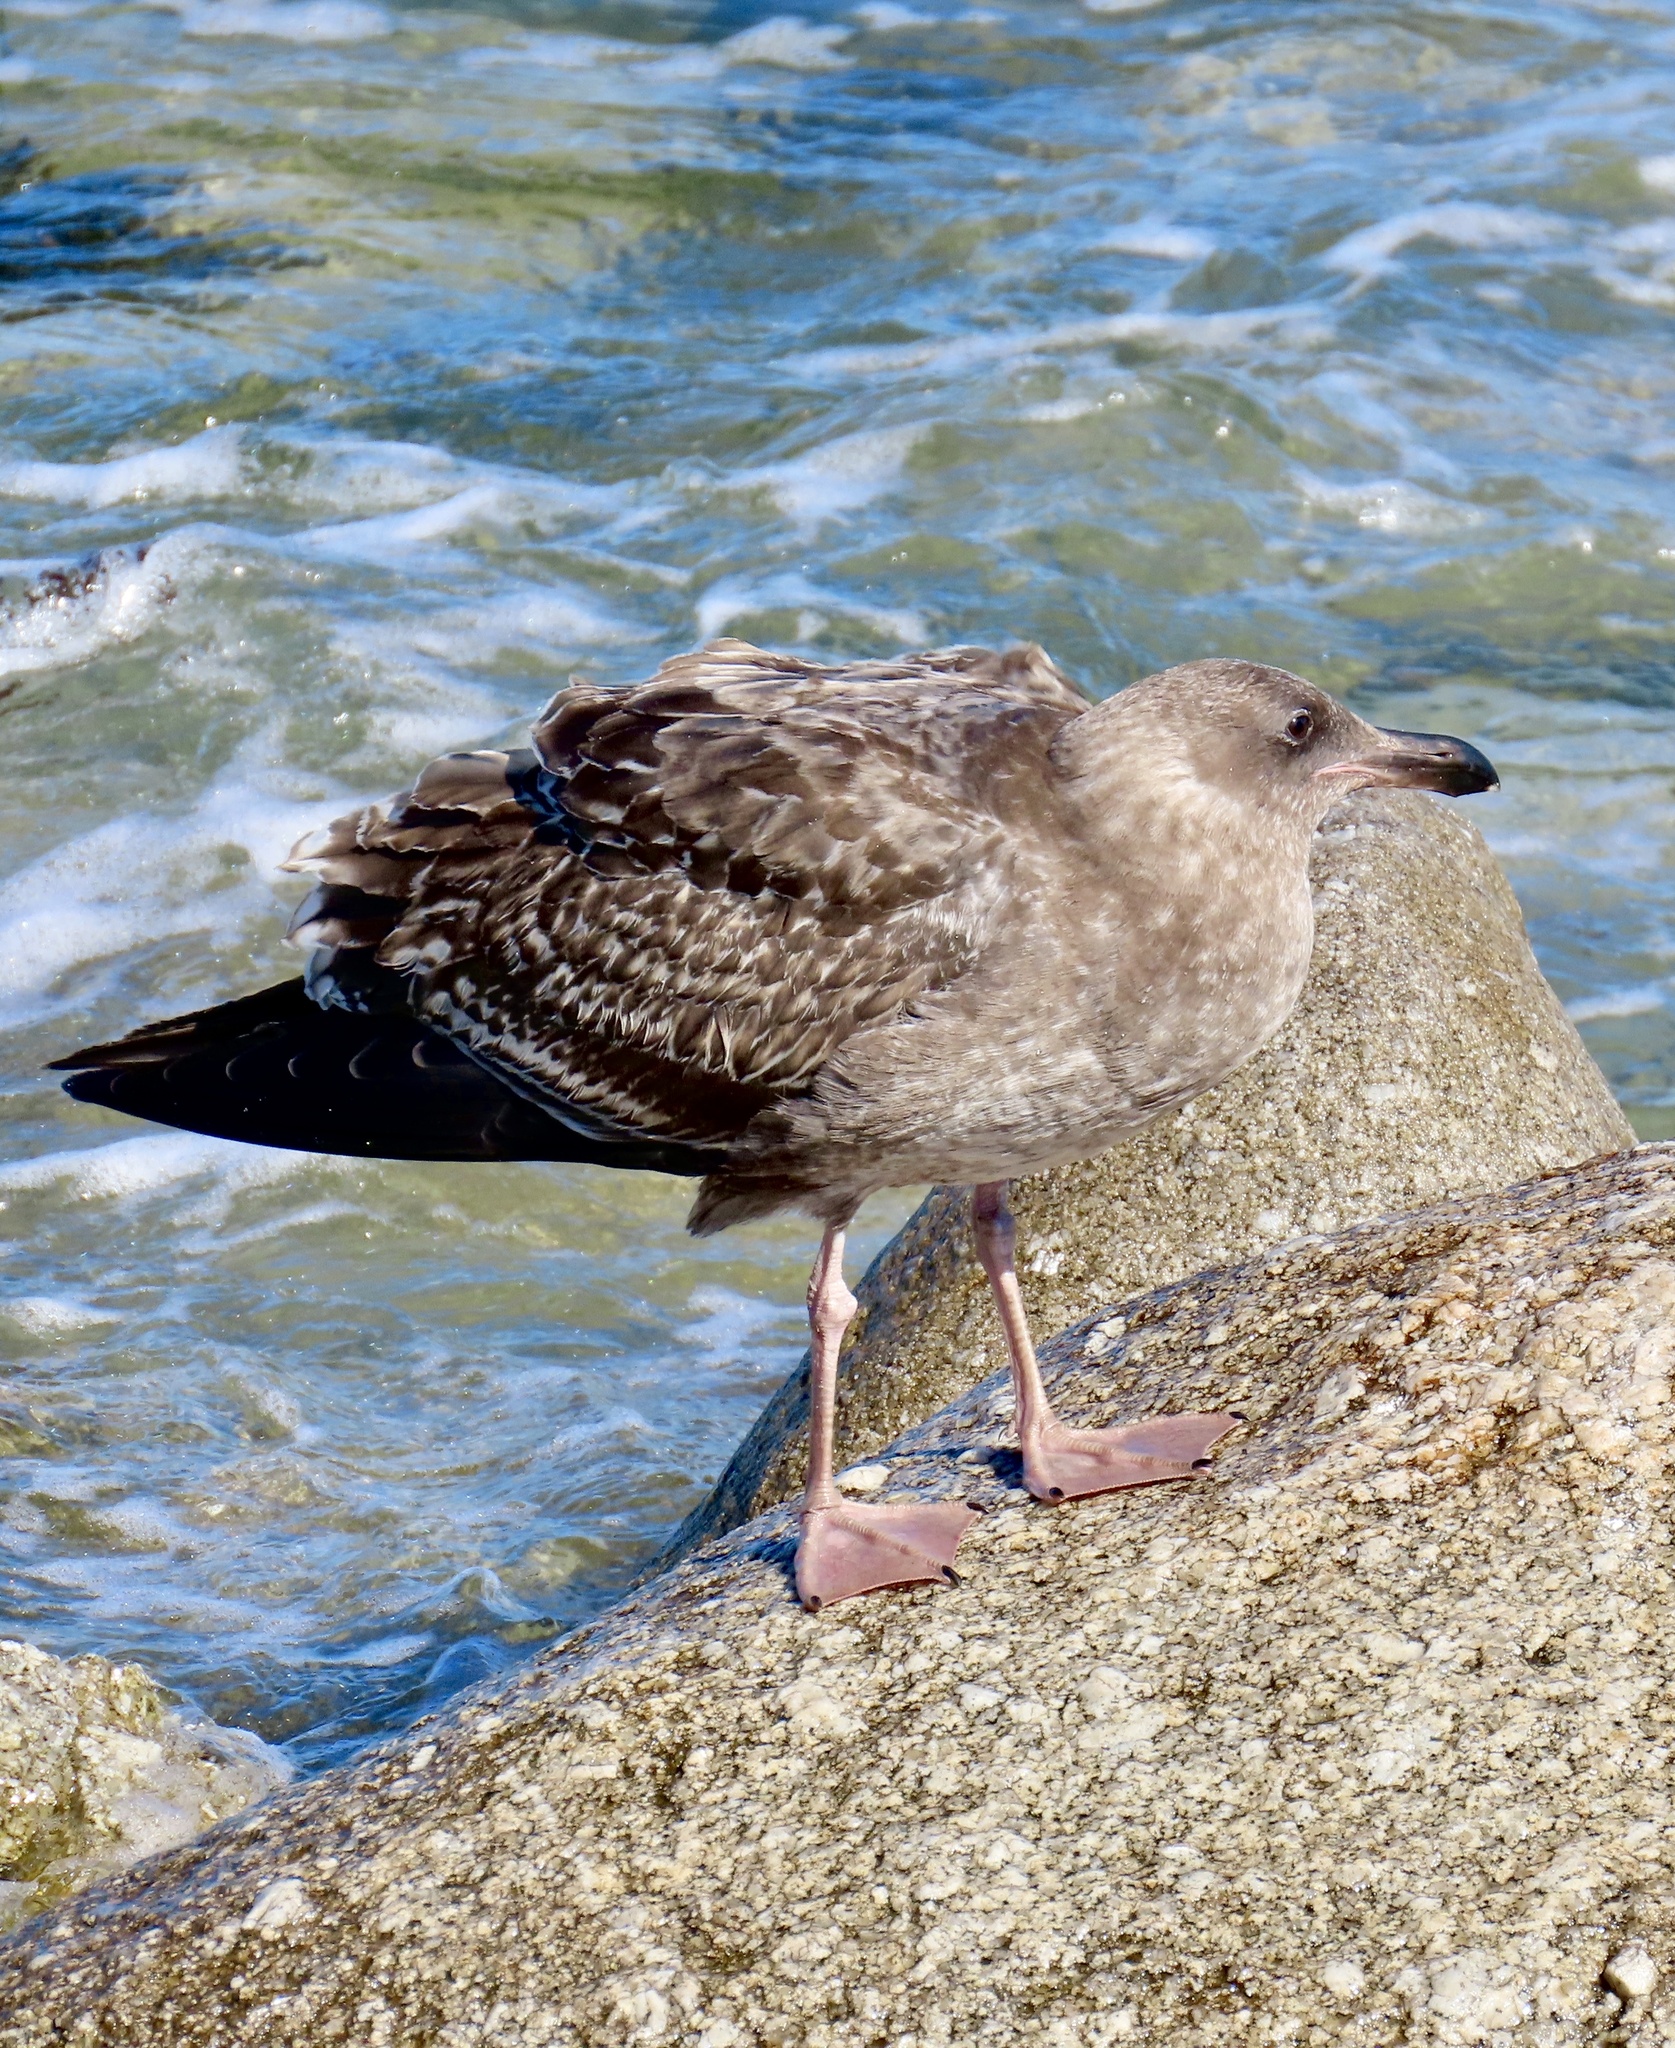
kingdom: Animalia
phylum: Chordata
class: Aves
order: Charadriiformes
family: Laridae
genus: Larus
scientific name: Larus occidentalis
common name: Western gull
